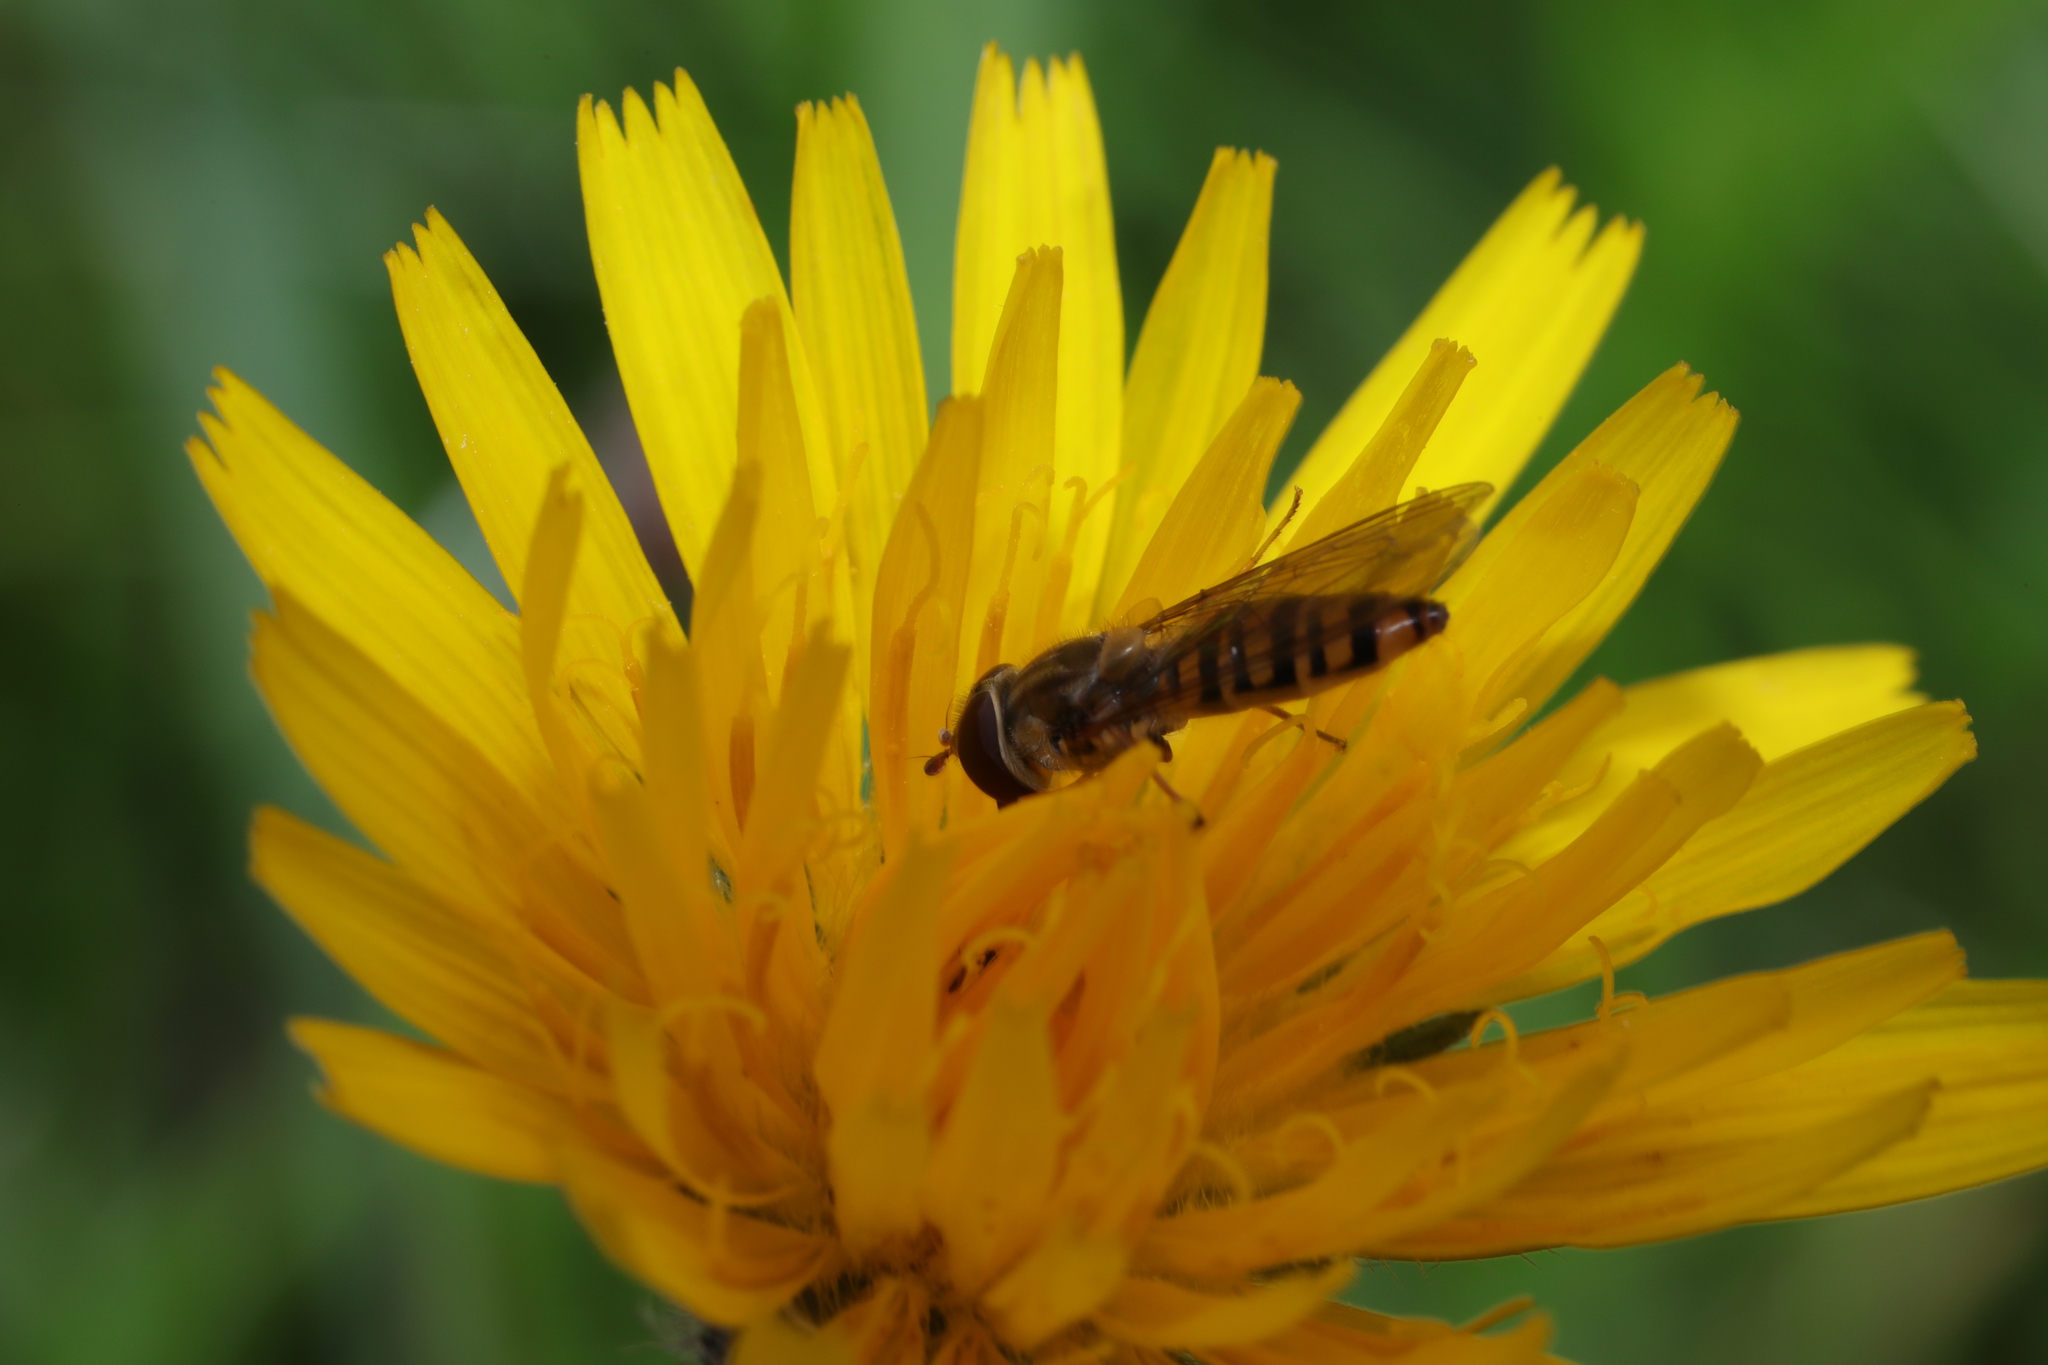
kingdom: Animalia
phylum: Arthropoda
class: Insecta
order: Diptera
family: Syrphidae
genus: Episyrphus
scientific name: Episyrphus balteatus
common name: Marmalade hoverfly
